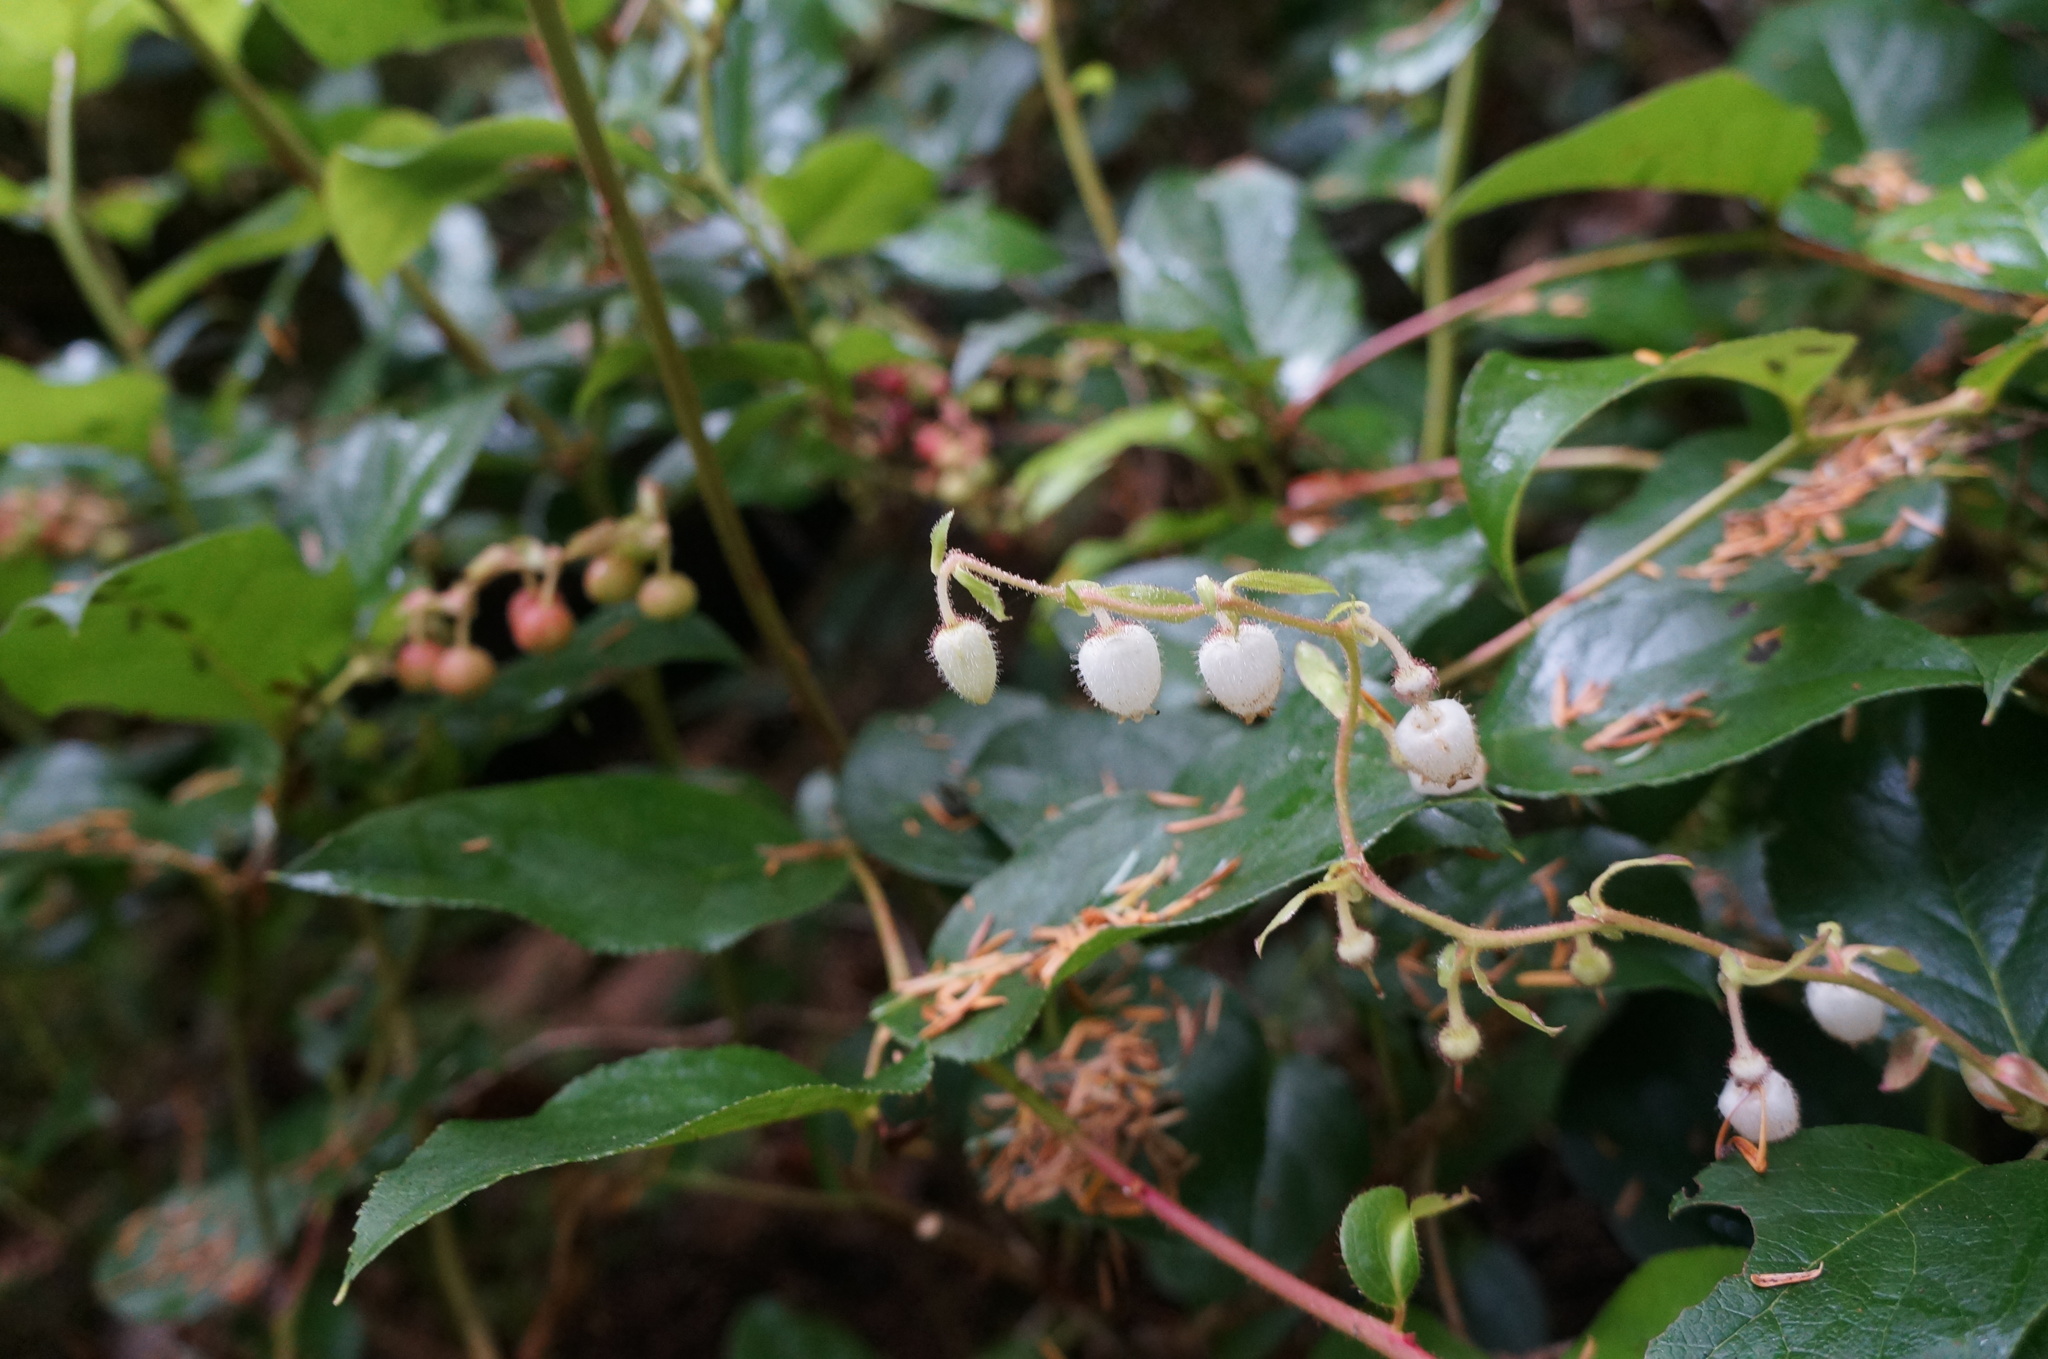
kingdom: Plantae
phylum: Tracheophyta
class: Magnoliopsida
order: Ericales
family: Ericaceae
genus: Gaultheria
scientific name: Gaultheria shallon
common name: Shallon
